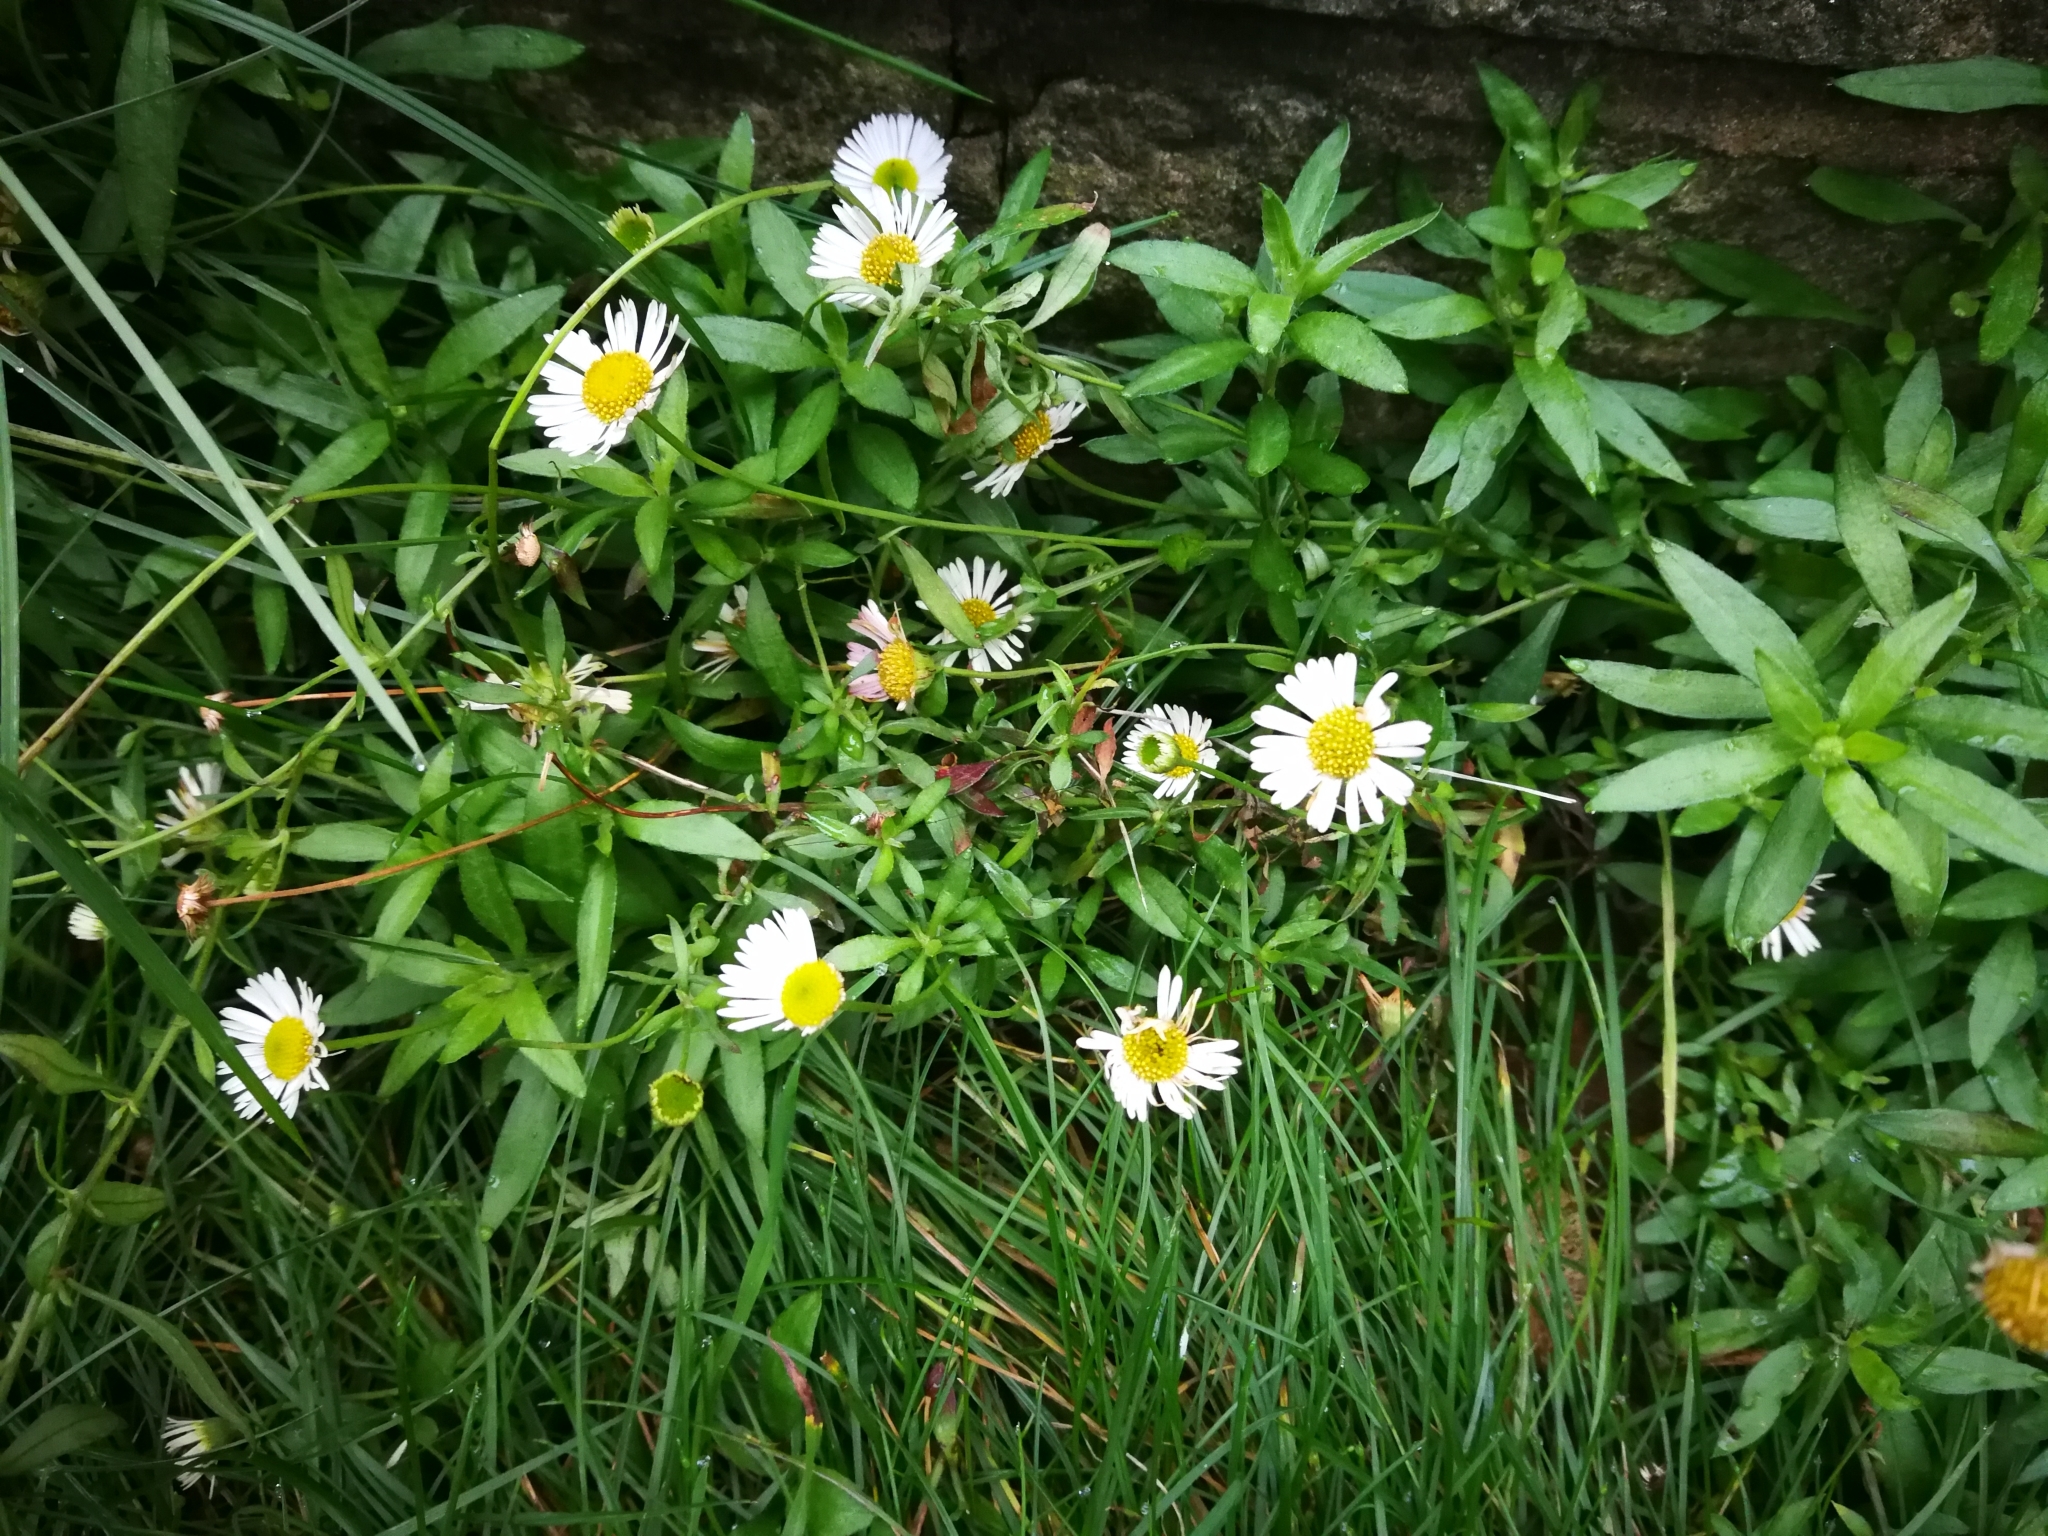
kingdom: Plantae
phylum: Tracheophyta
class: Magnoliopsida
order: Asterales
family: Asteraceae
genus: Erigeron
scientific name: Erigeron karvinskianus
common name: Mexican fleabane
